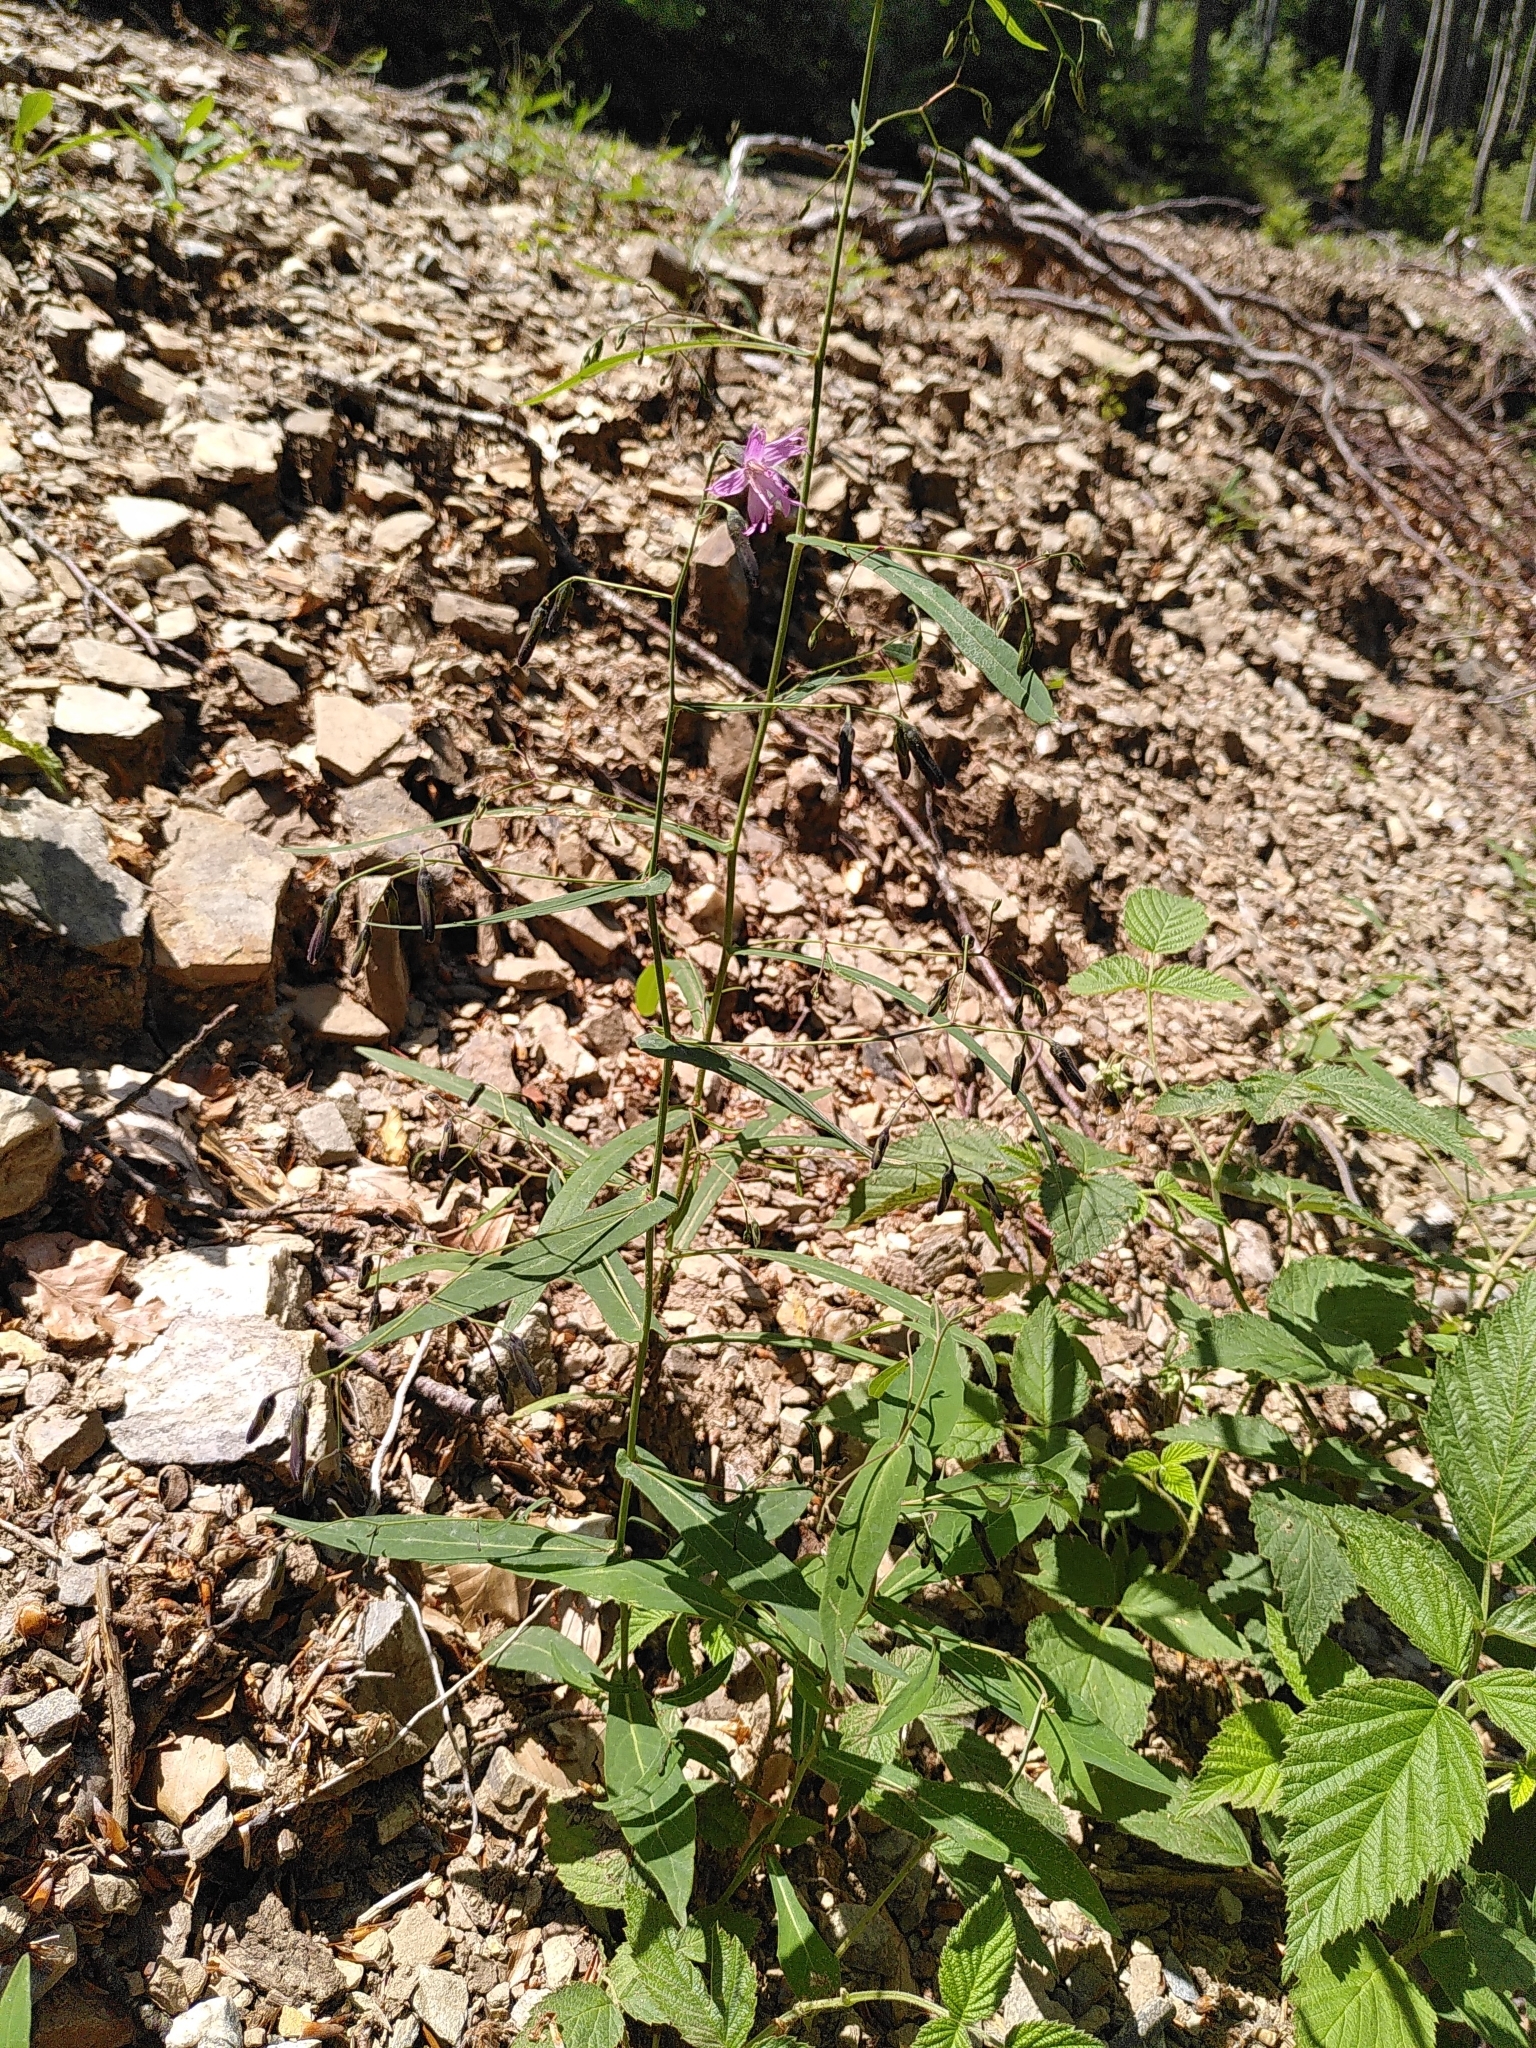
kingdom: Plantae
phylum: Tracheophyta
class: Magnoliopsida
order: Asterales
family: Asteraceae
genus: Prenanthes
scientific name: Prenanthes purpurea
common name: Purple lettuce
